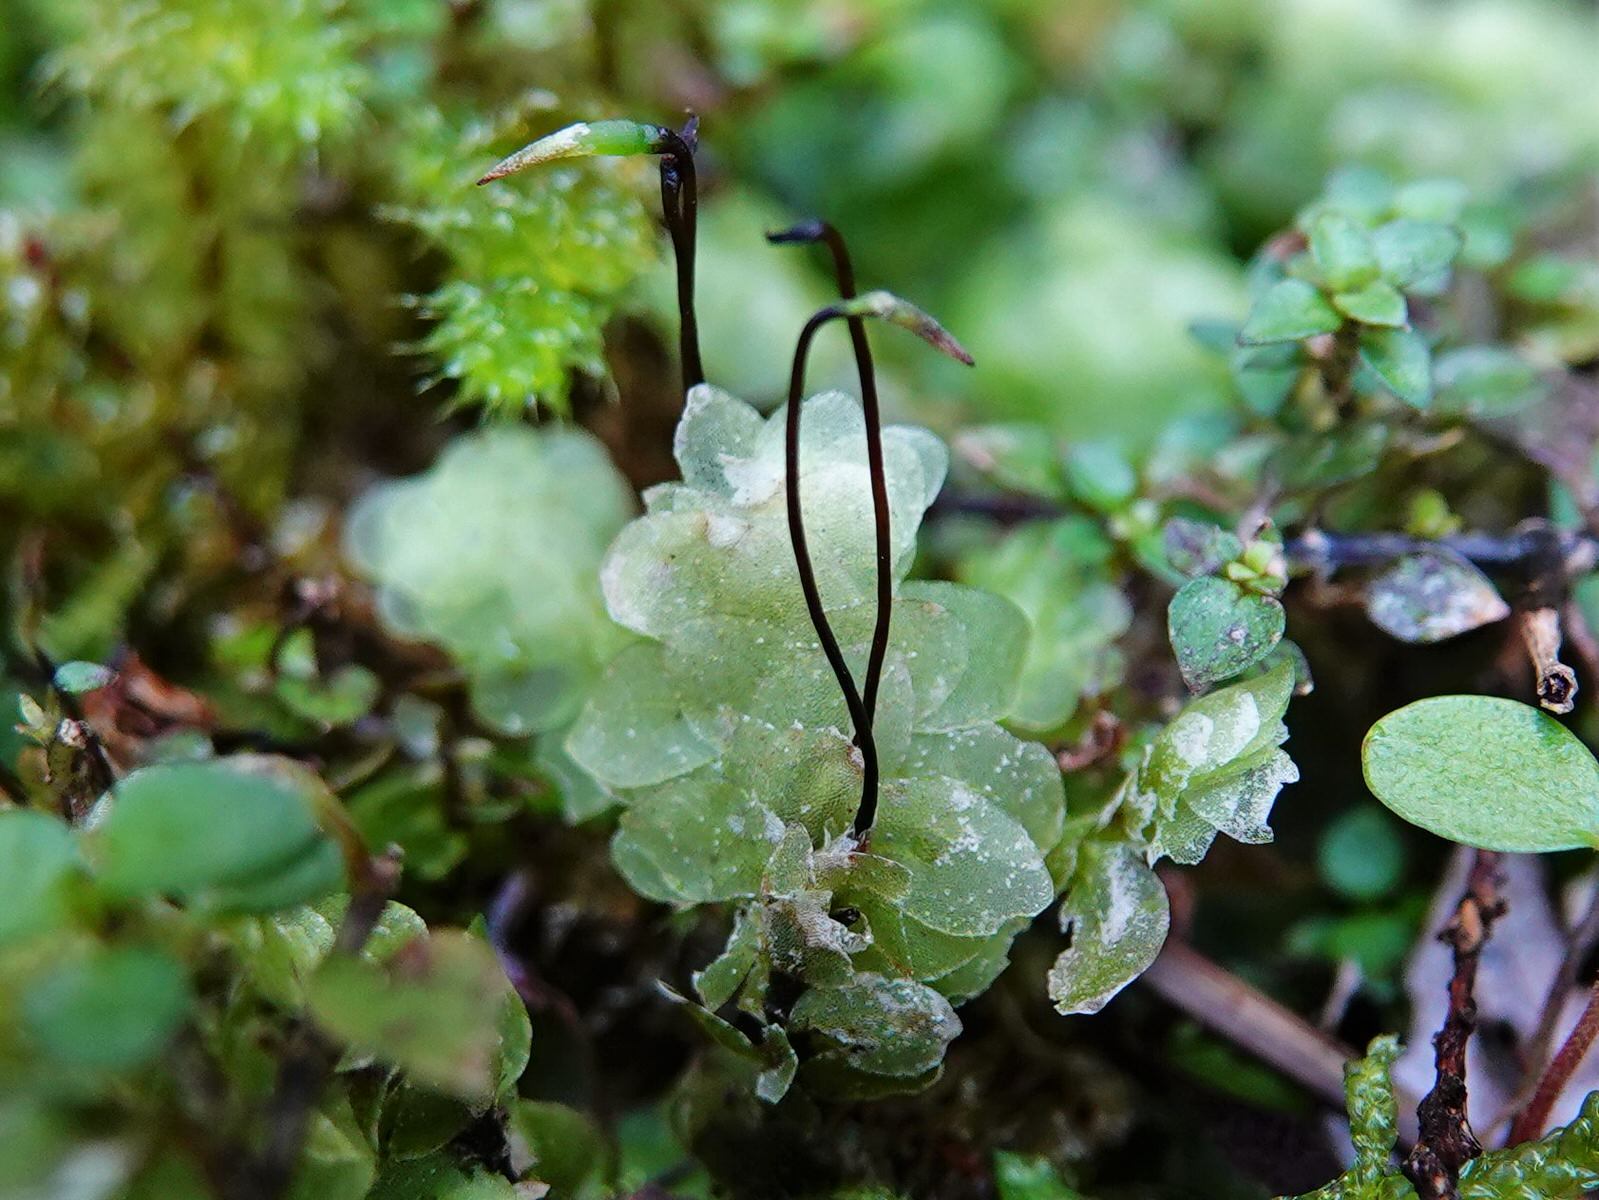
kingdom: Plantae
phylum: Bryophyta
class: Bryopsida
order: Hookeriales
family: Daltoniaceae
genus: Achrophyllum
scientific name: Achrophyllum quadrifarium
